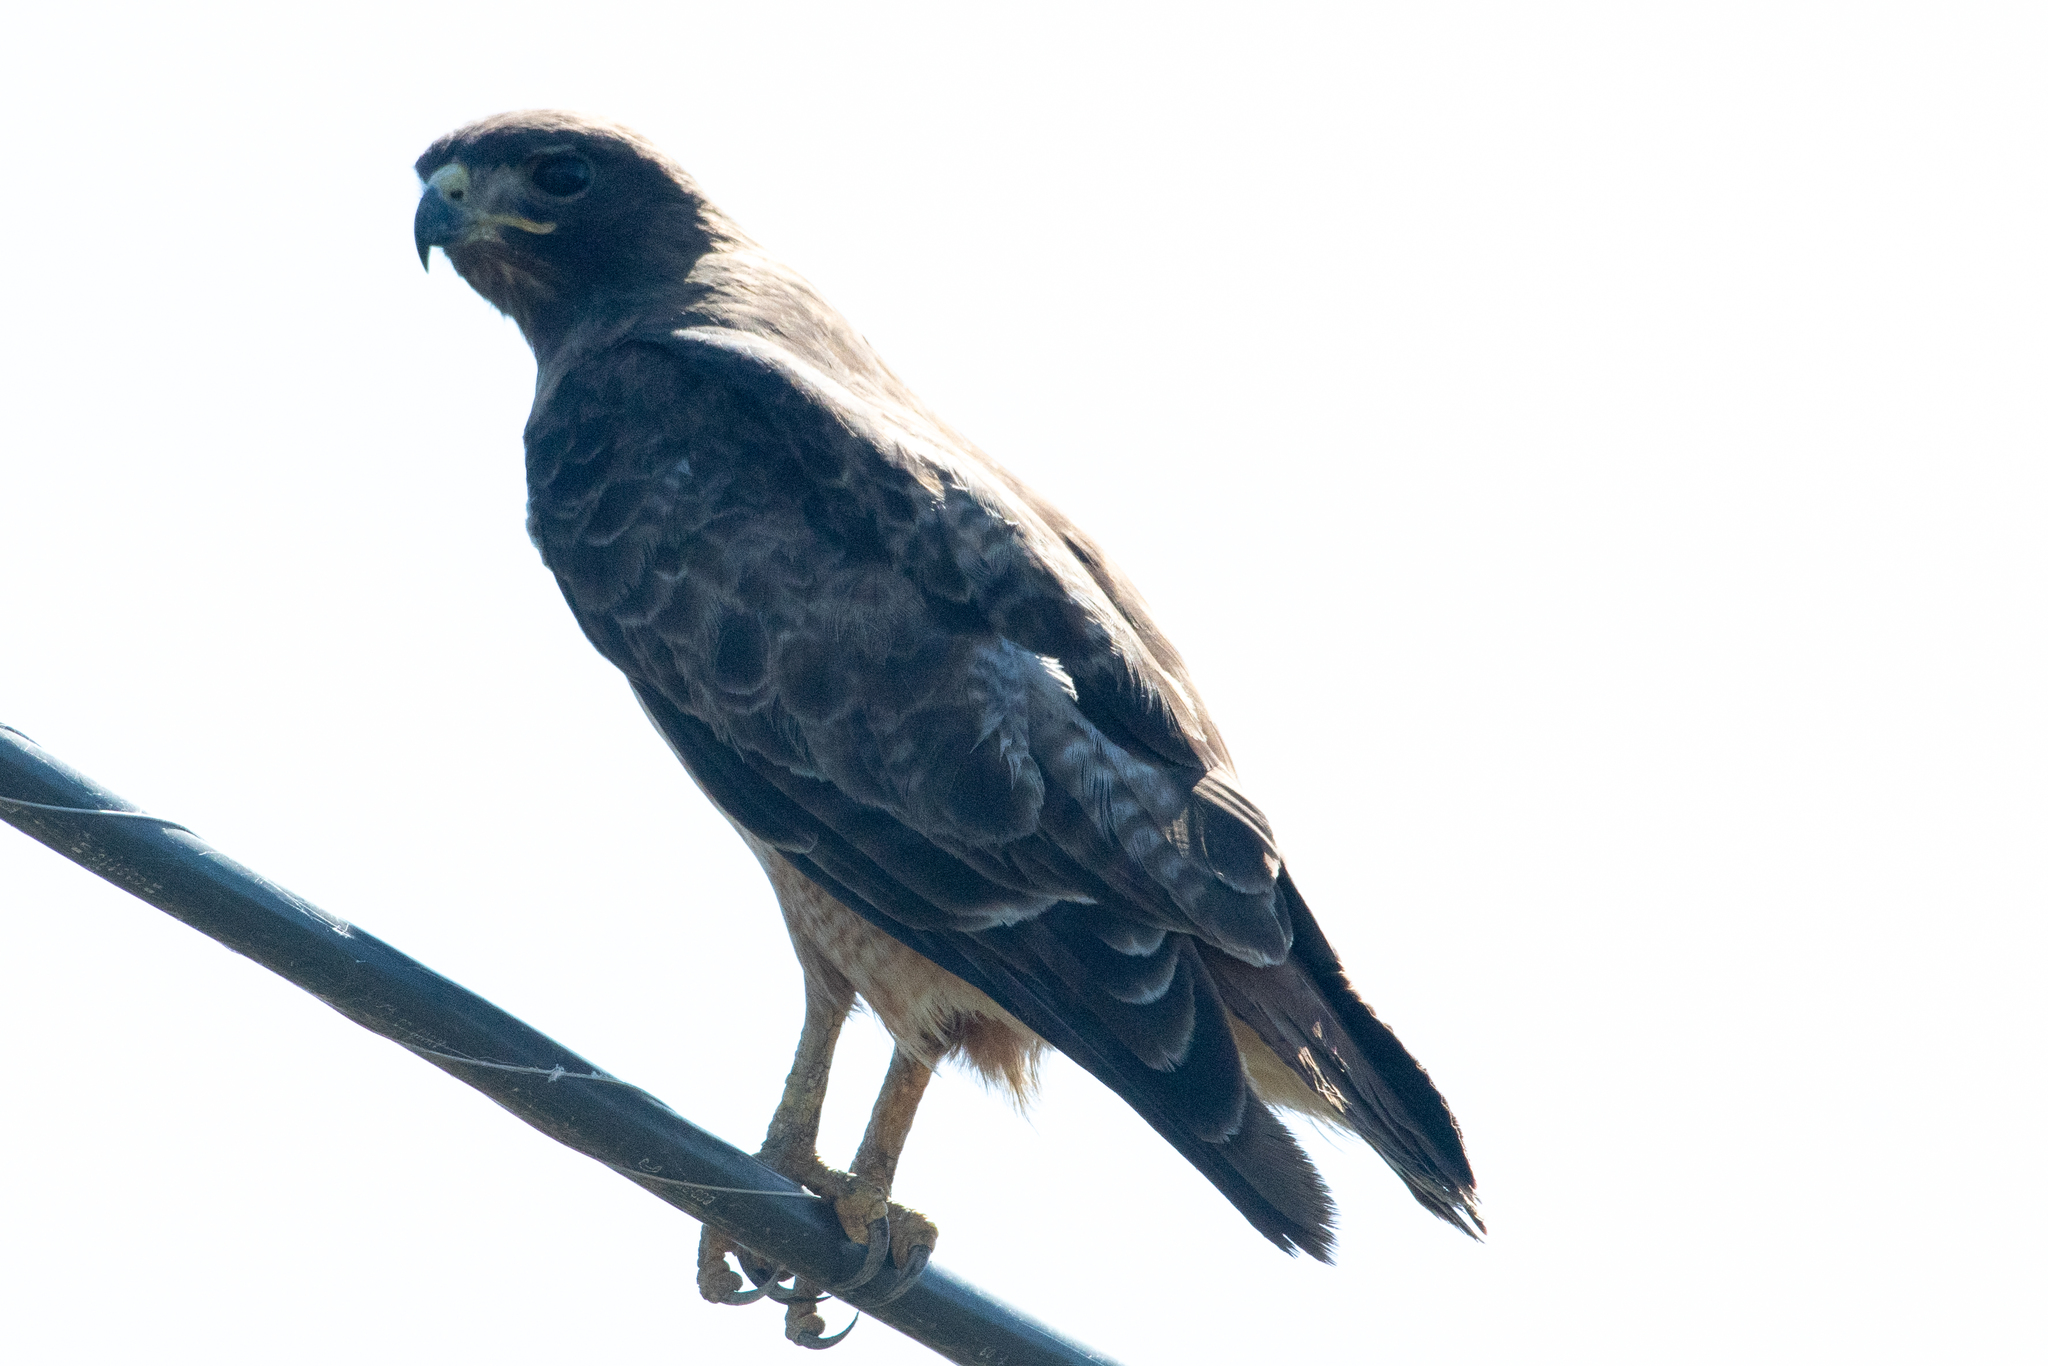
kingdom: Animalia
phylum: Chordata
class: Aves
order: Accipitriformes
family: Accipitridae
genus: Buteo
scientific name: Buteo jamaicensis
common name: Red-tailed hawk
